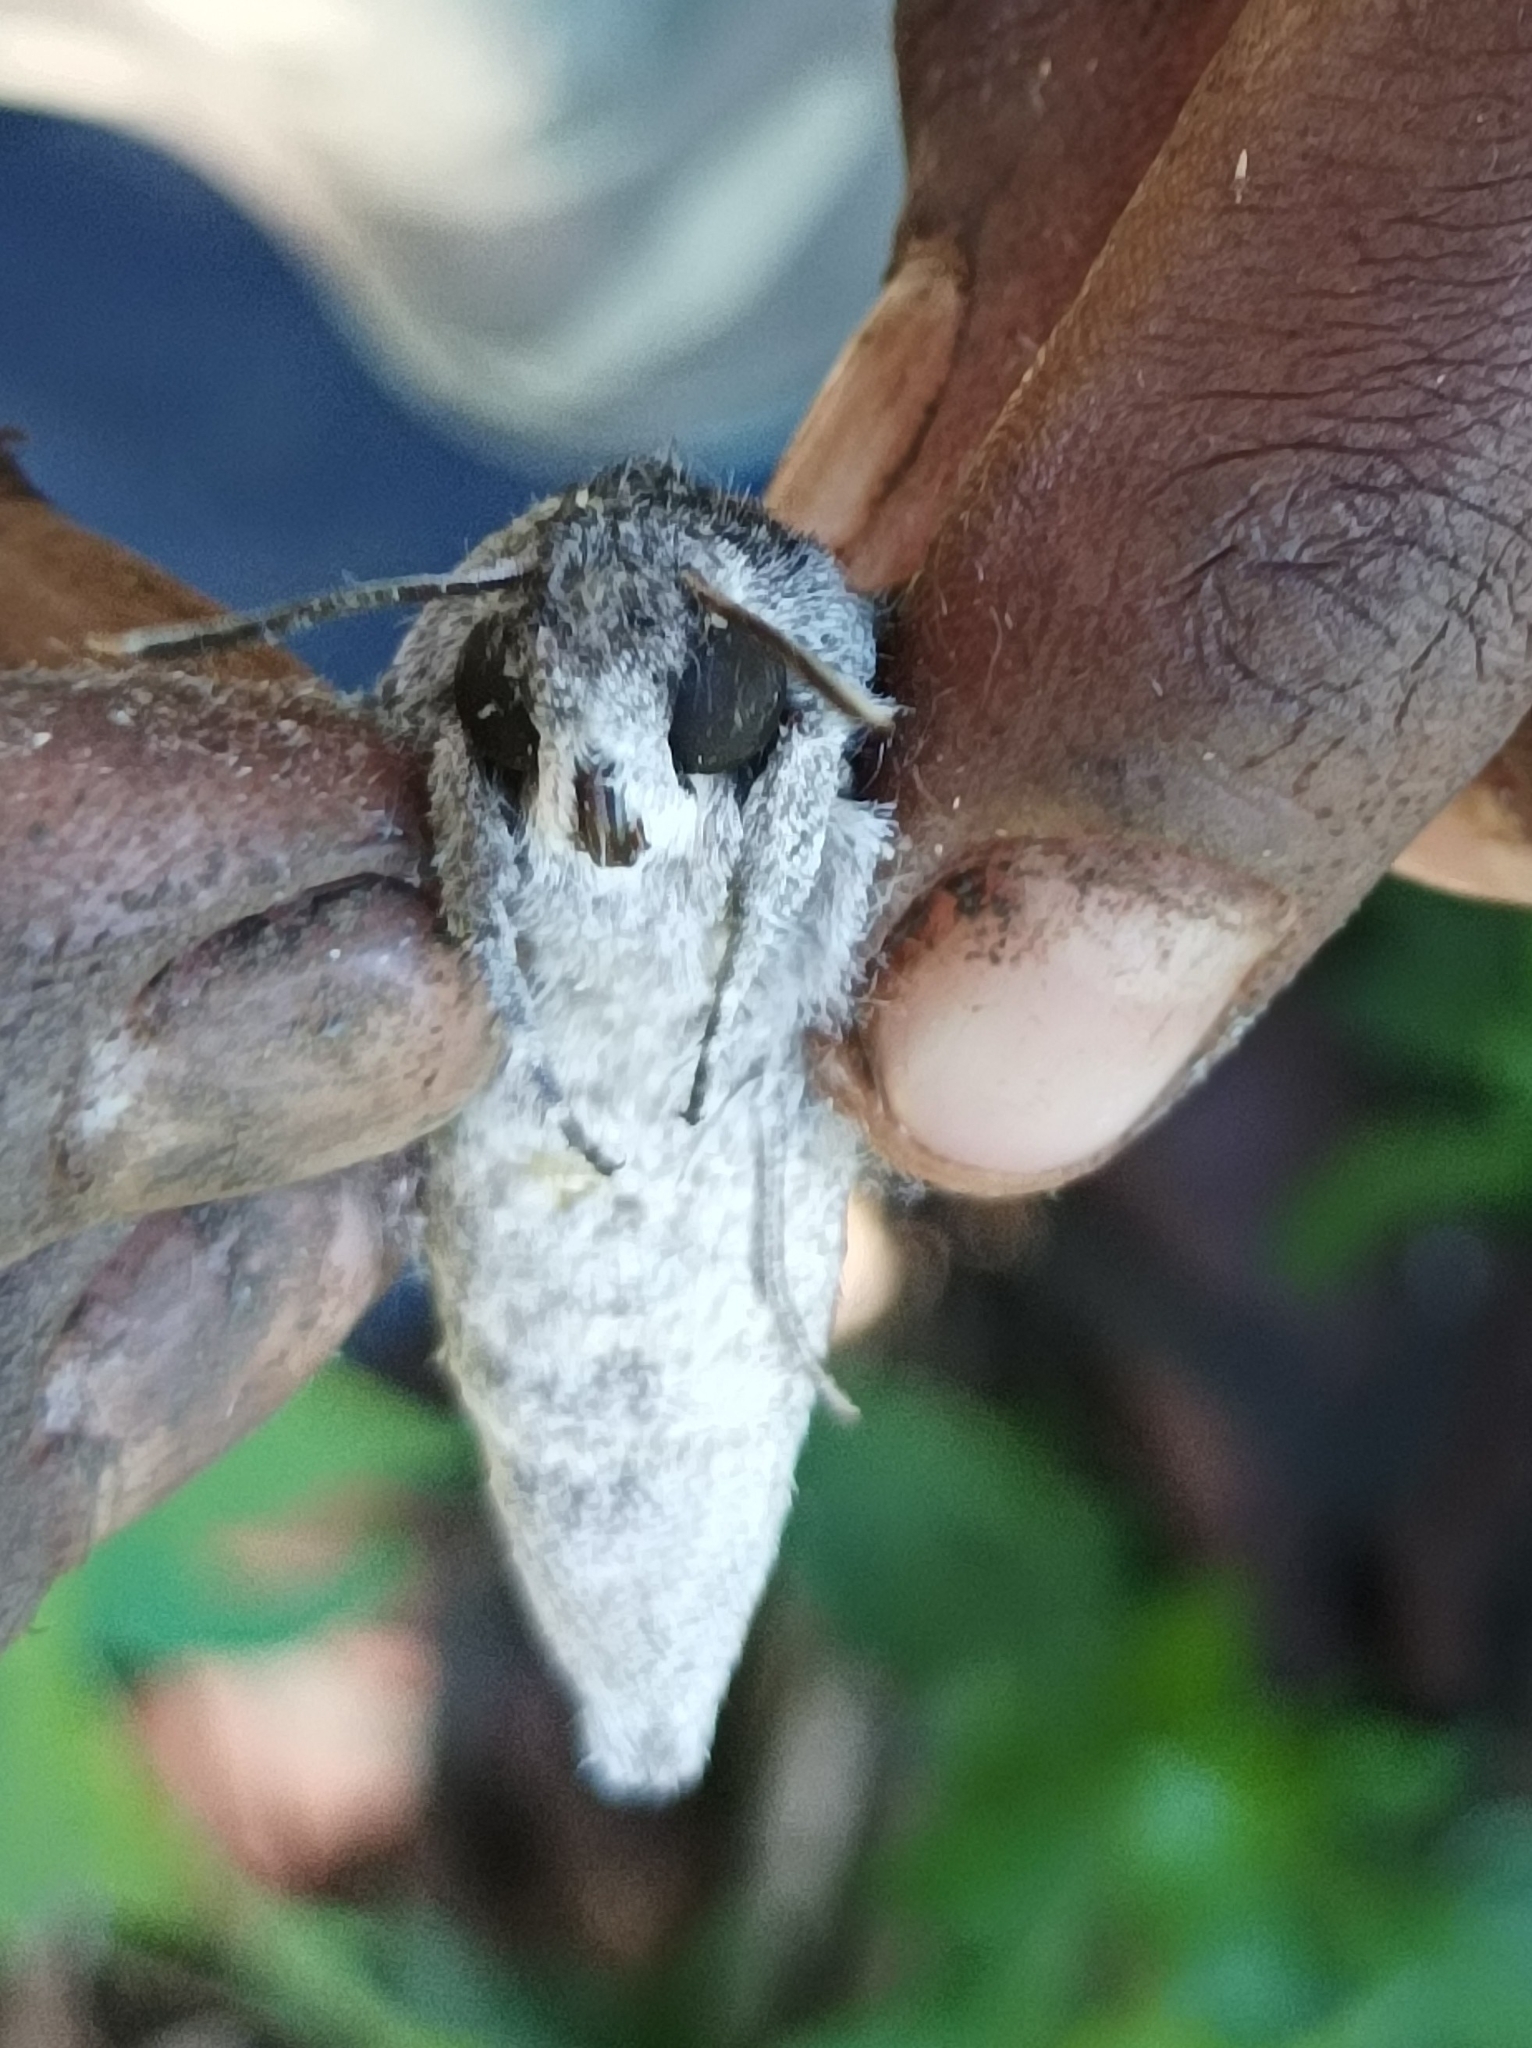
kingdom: Animalia
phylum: Arthropoda
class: Insecta
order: Lepidoptera
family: Sphingidae
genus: Agrius
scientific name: Agrius convolvuli
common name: Convolvulus hawkmoth
